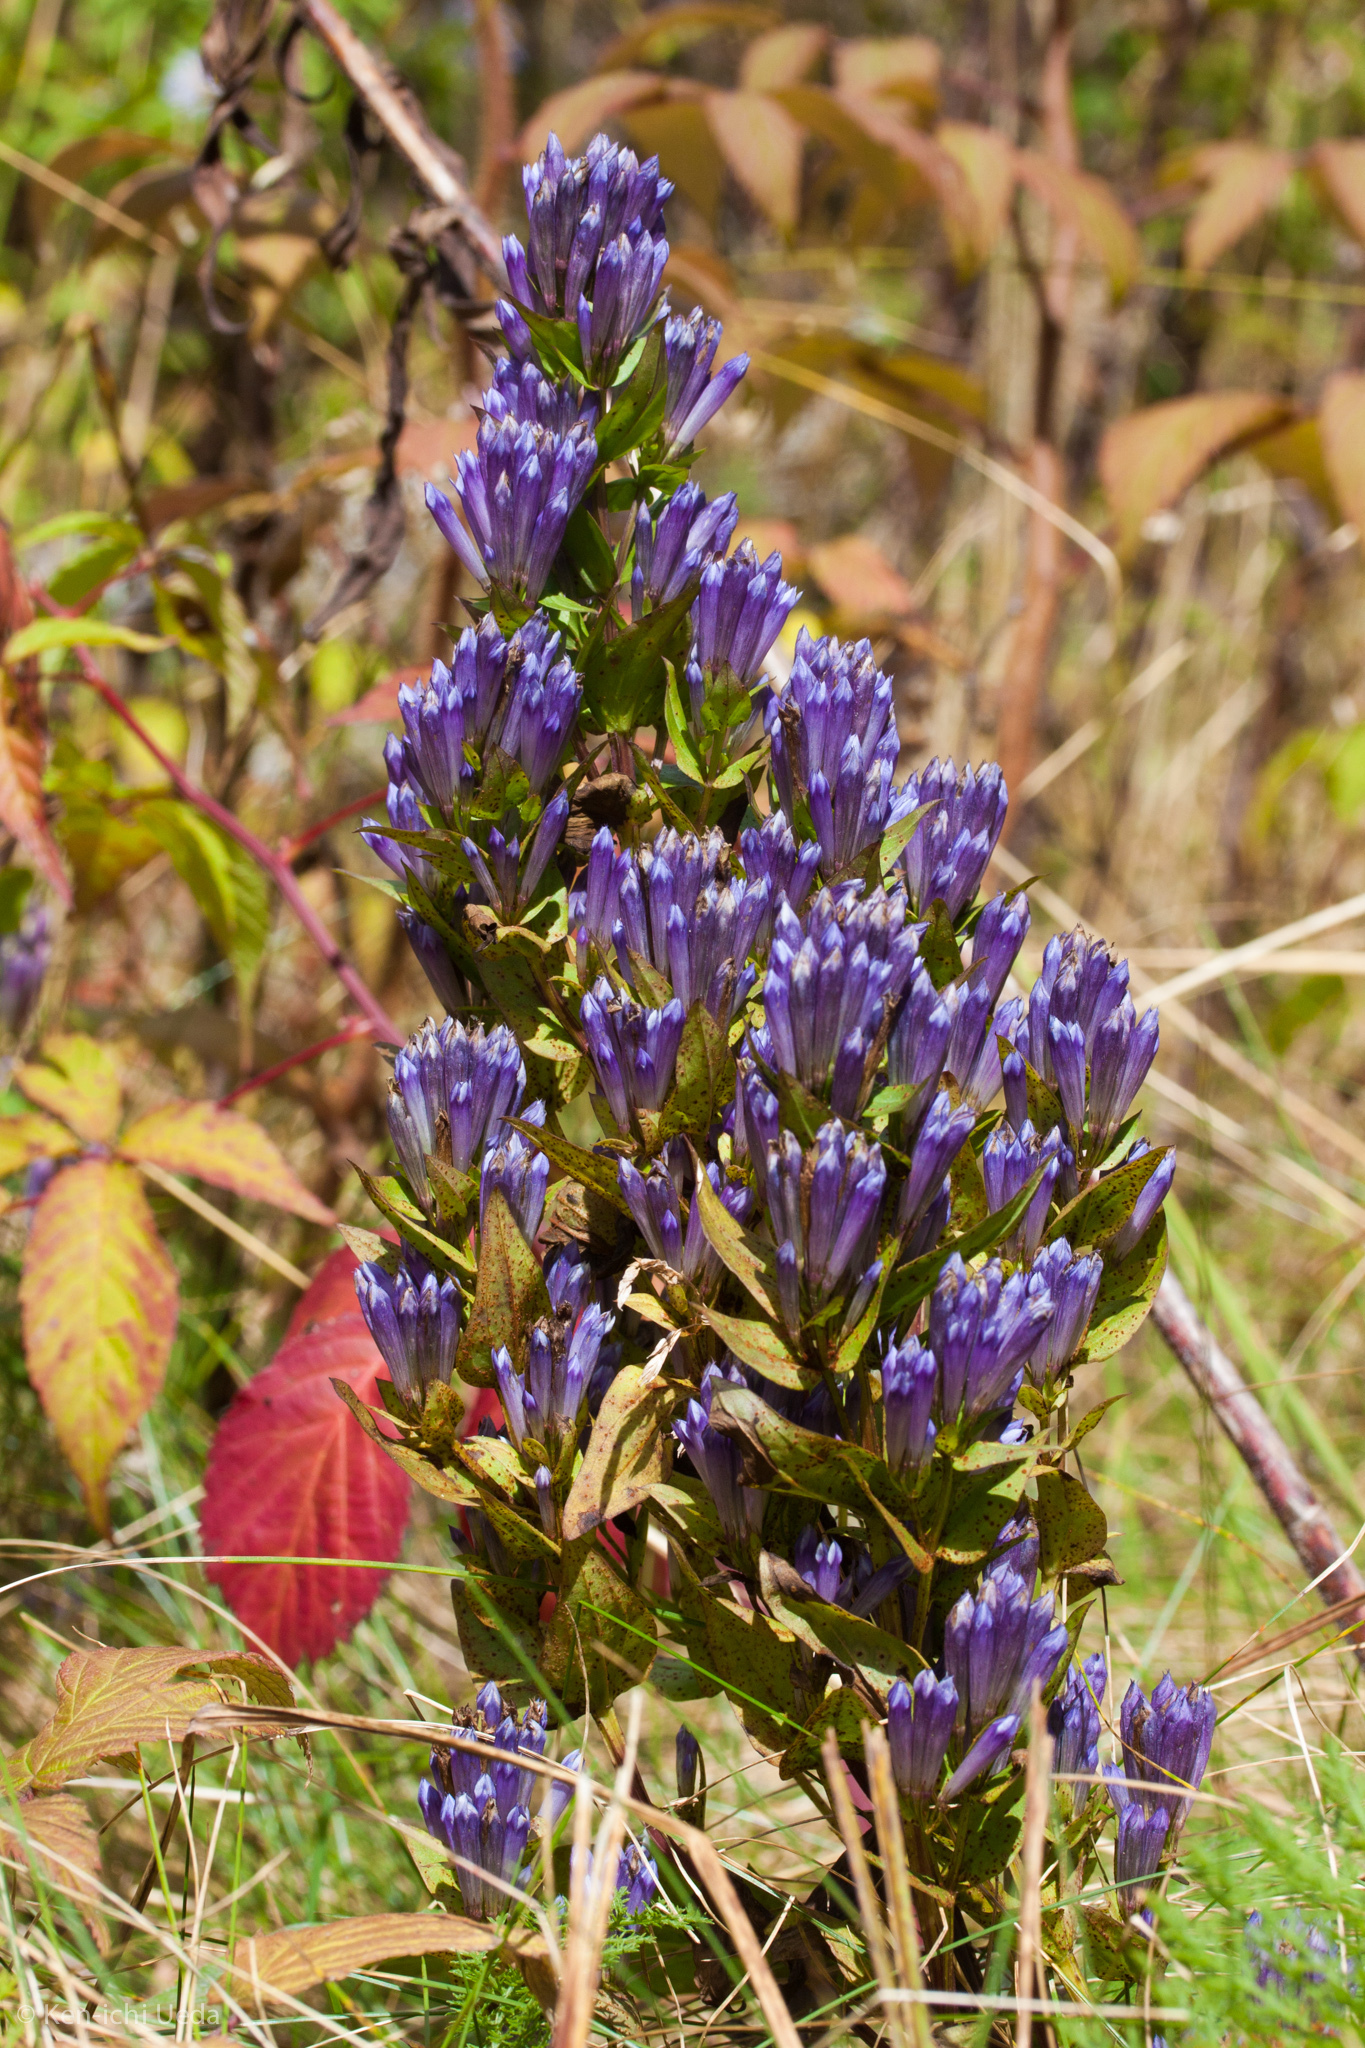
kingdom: Plantae
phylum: Tracheophyta
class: Magnoliopsida
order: Gentianales
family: Gentianaceae
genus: Gentianella
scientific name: Gentianella quinquefolia
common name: Agueweed
